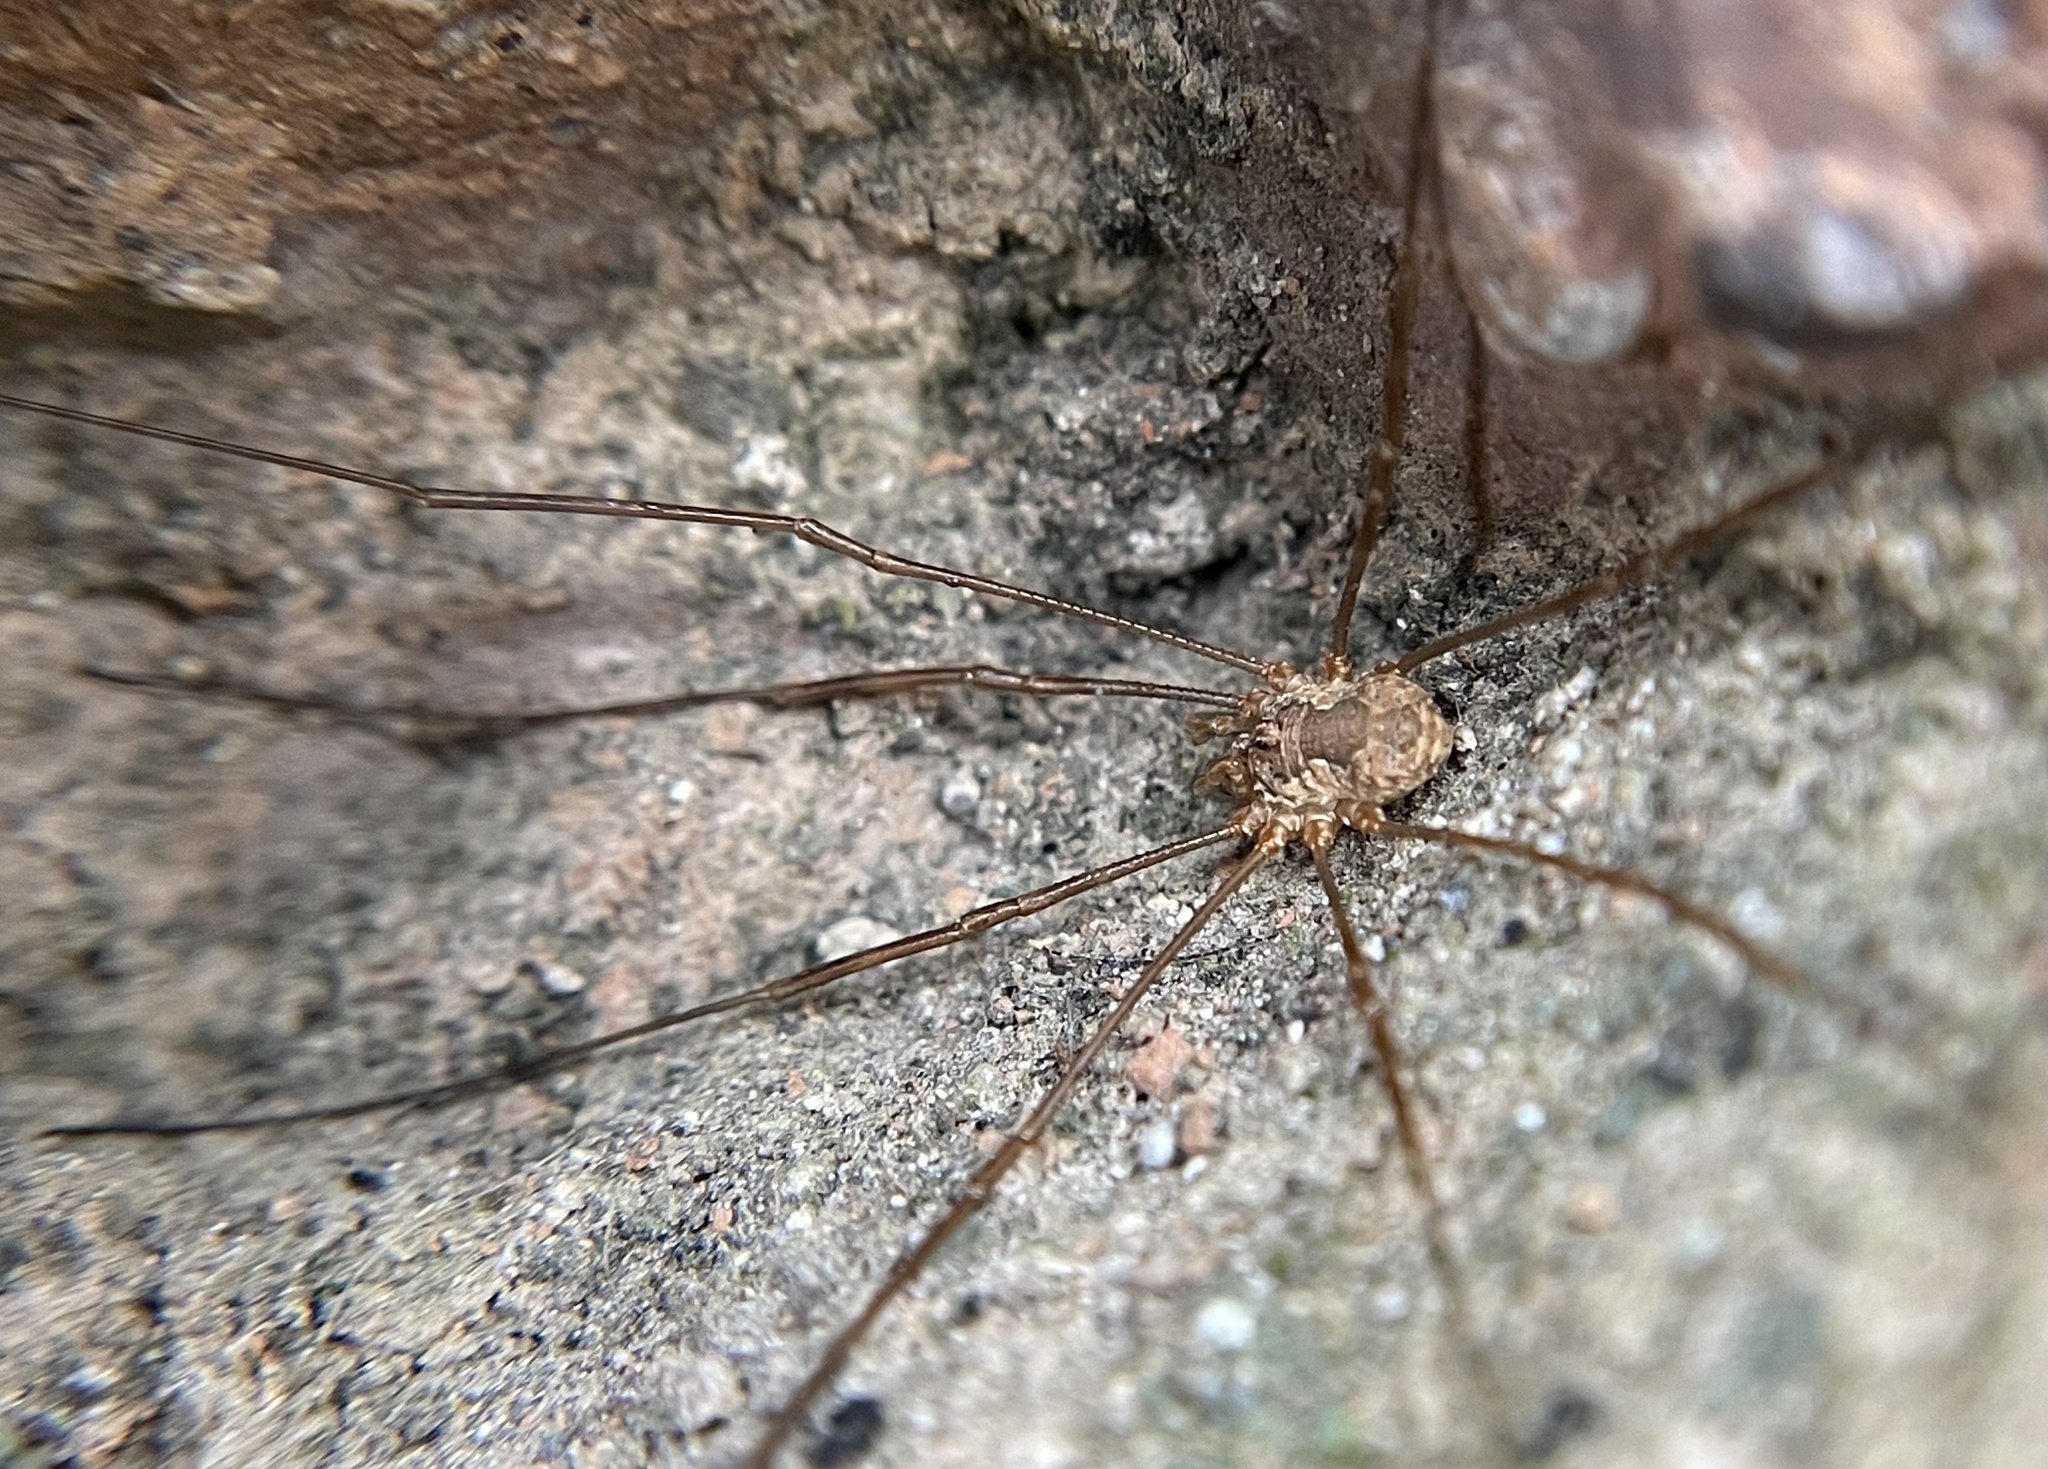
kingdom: Animalia
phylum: Arthropoda
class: Arachnida
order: Opiliones
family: Phalangiidae
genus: Dasylobus
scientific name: Dasylobus
